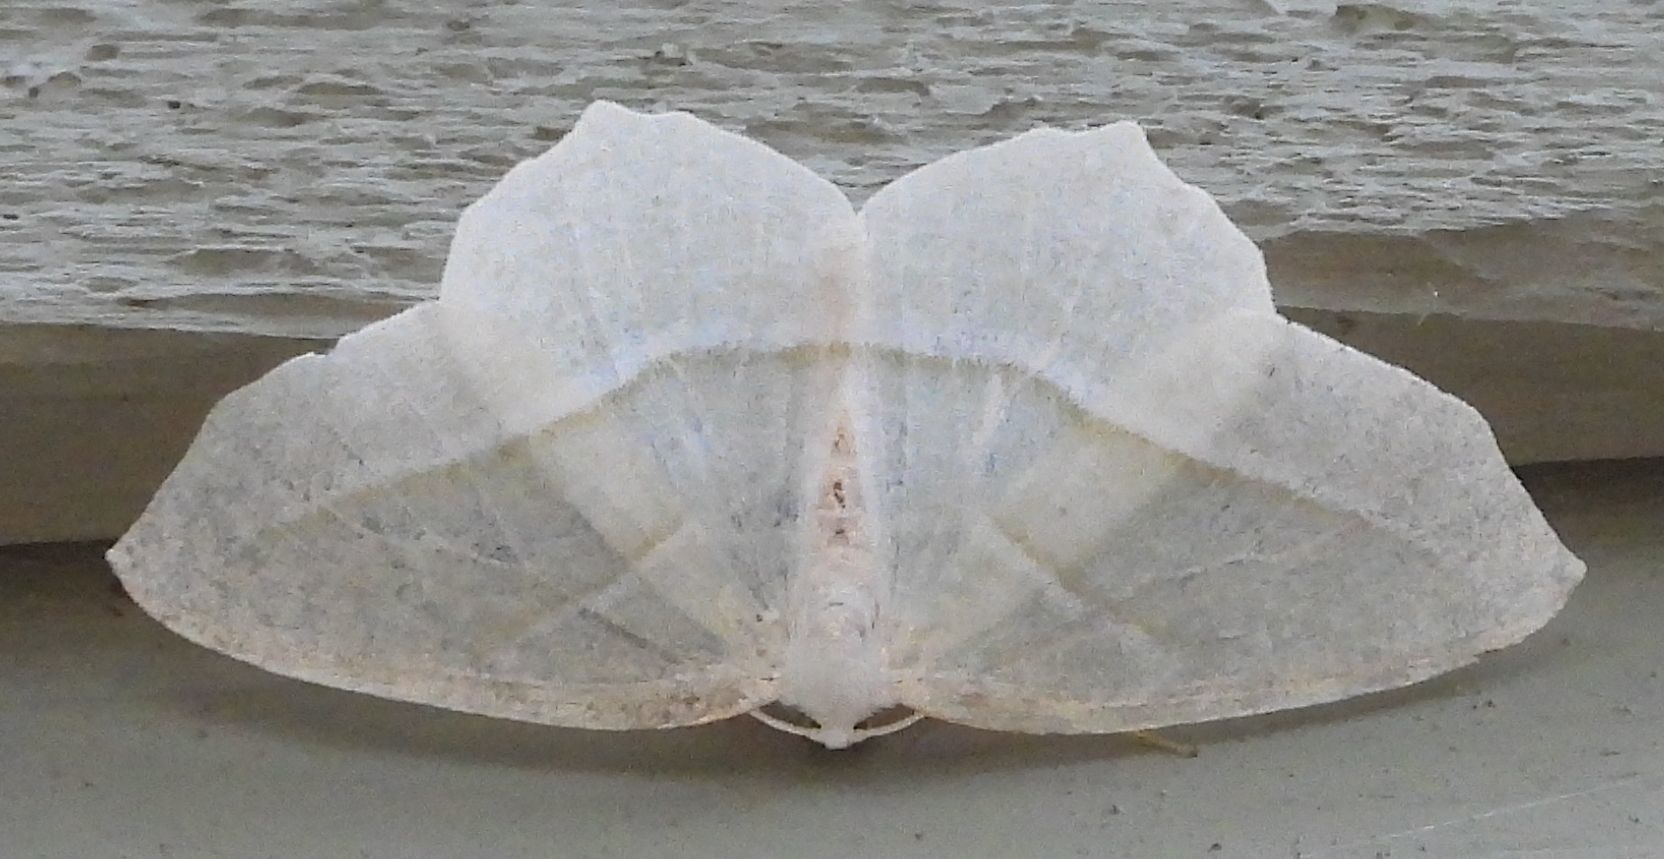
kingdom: Animalia
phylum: Arthropoda
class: Insecta
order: Lepidoptera
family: Geometridae
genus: Campaea
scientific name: Campaea perlata
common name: Fringed looper
